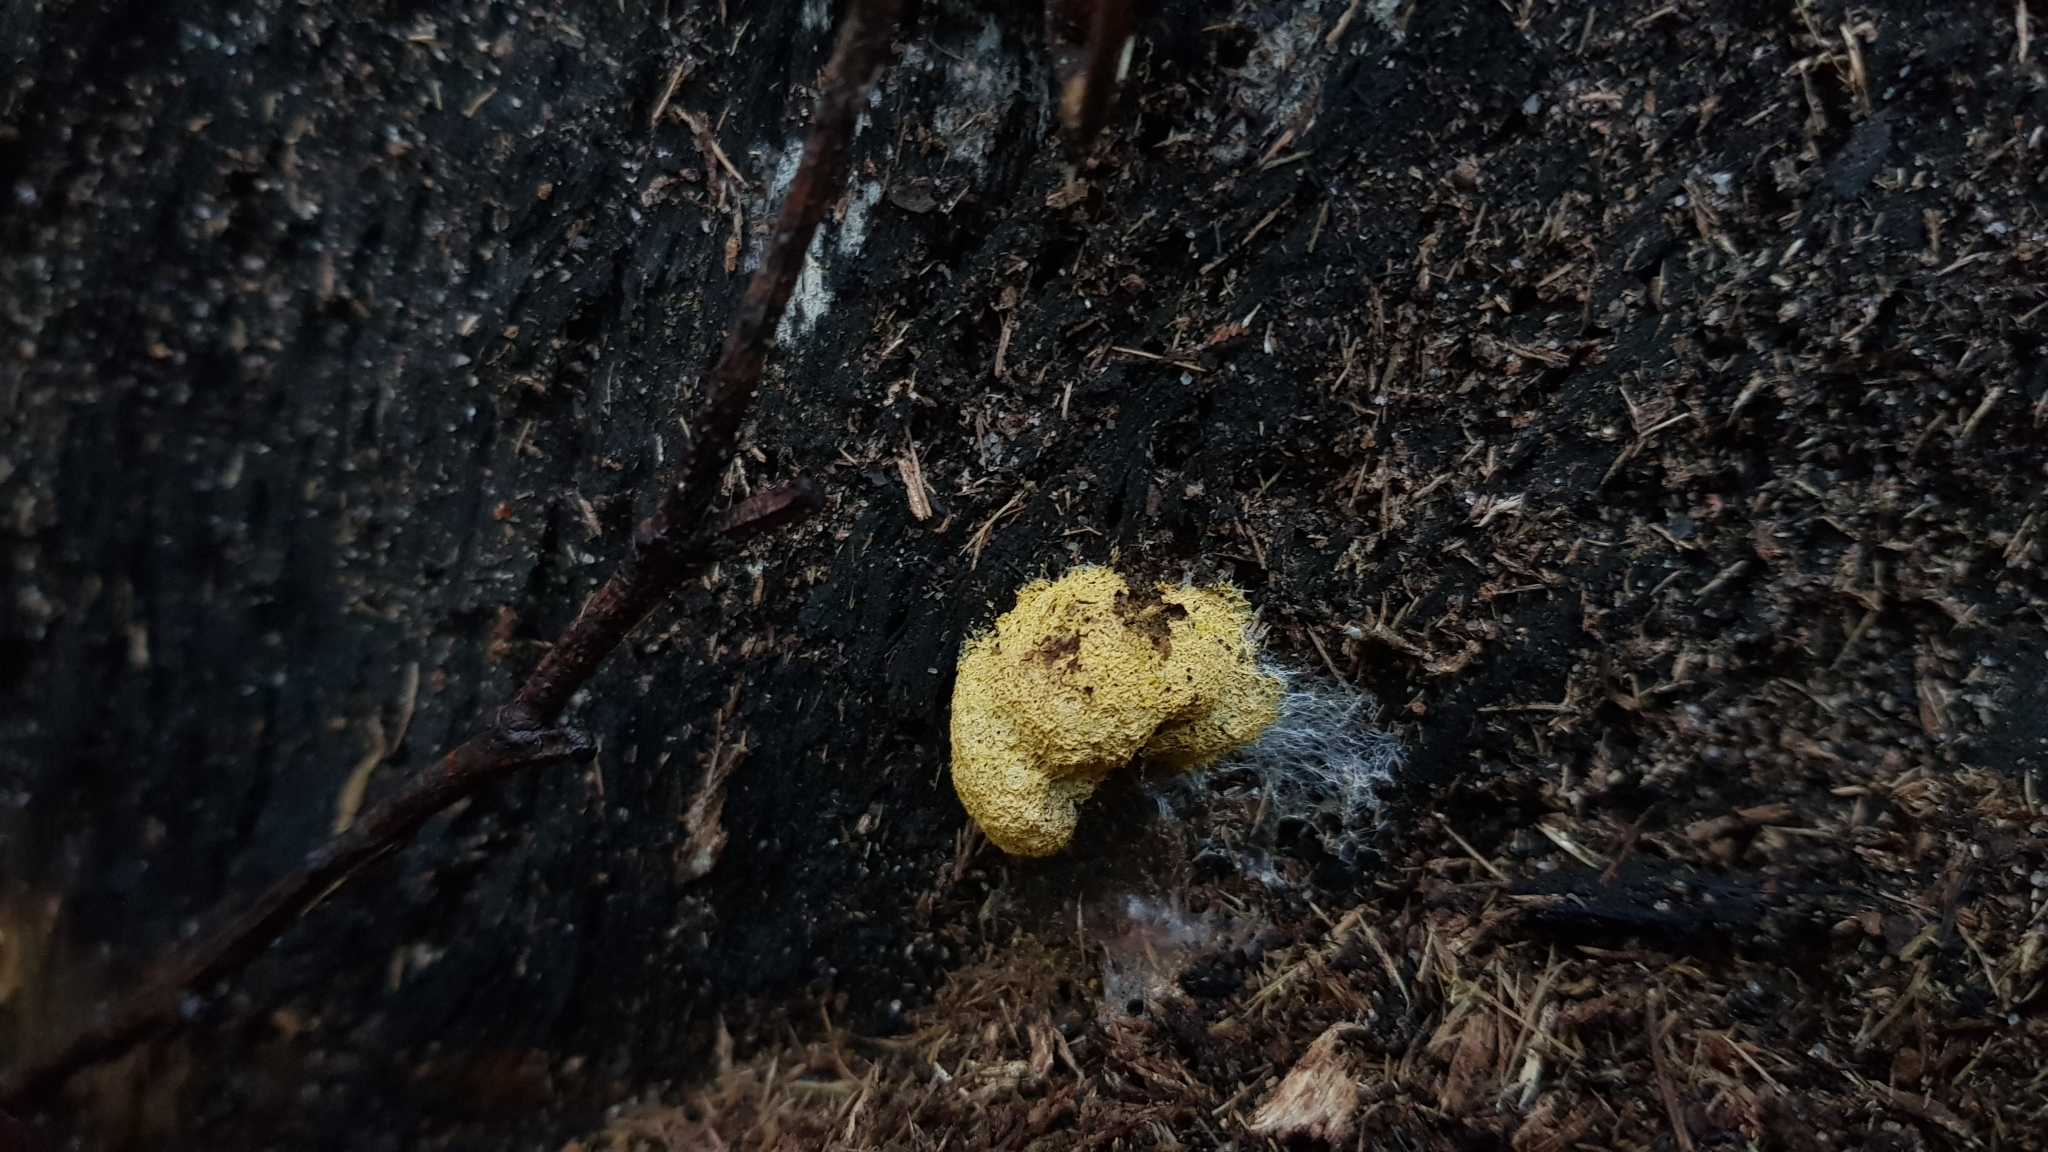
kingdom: Protozoa
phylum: Mycetozoa
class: Myxomycetes
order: Physarales
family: Physaraceae
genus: Fuligo
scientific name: Fuligo septica
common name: Dog vomit slime mold
